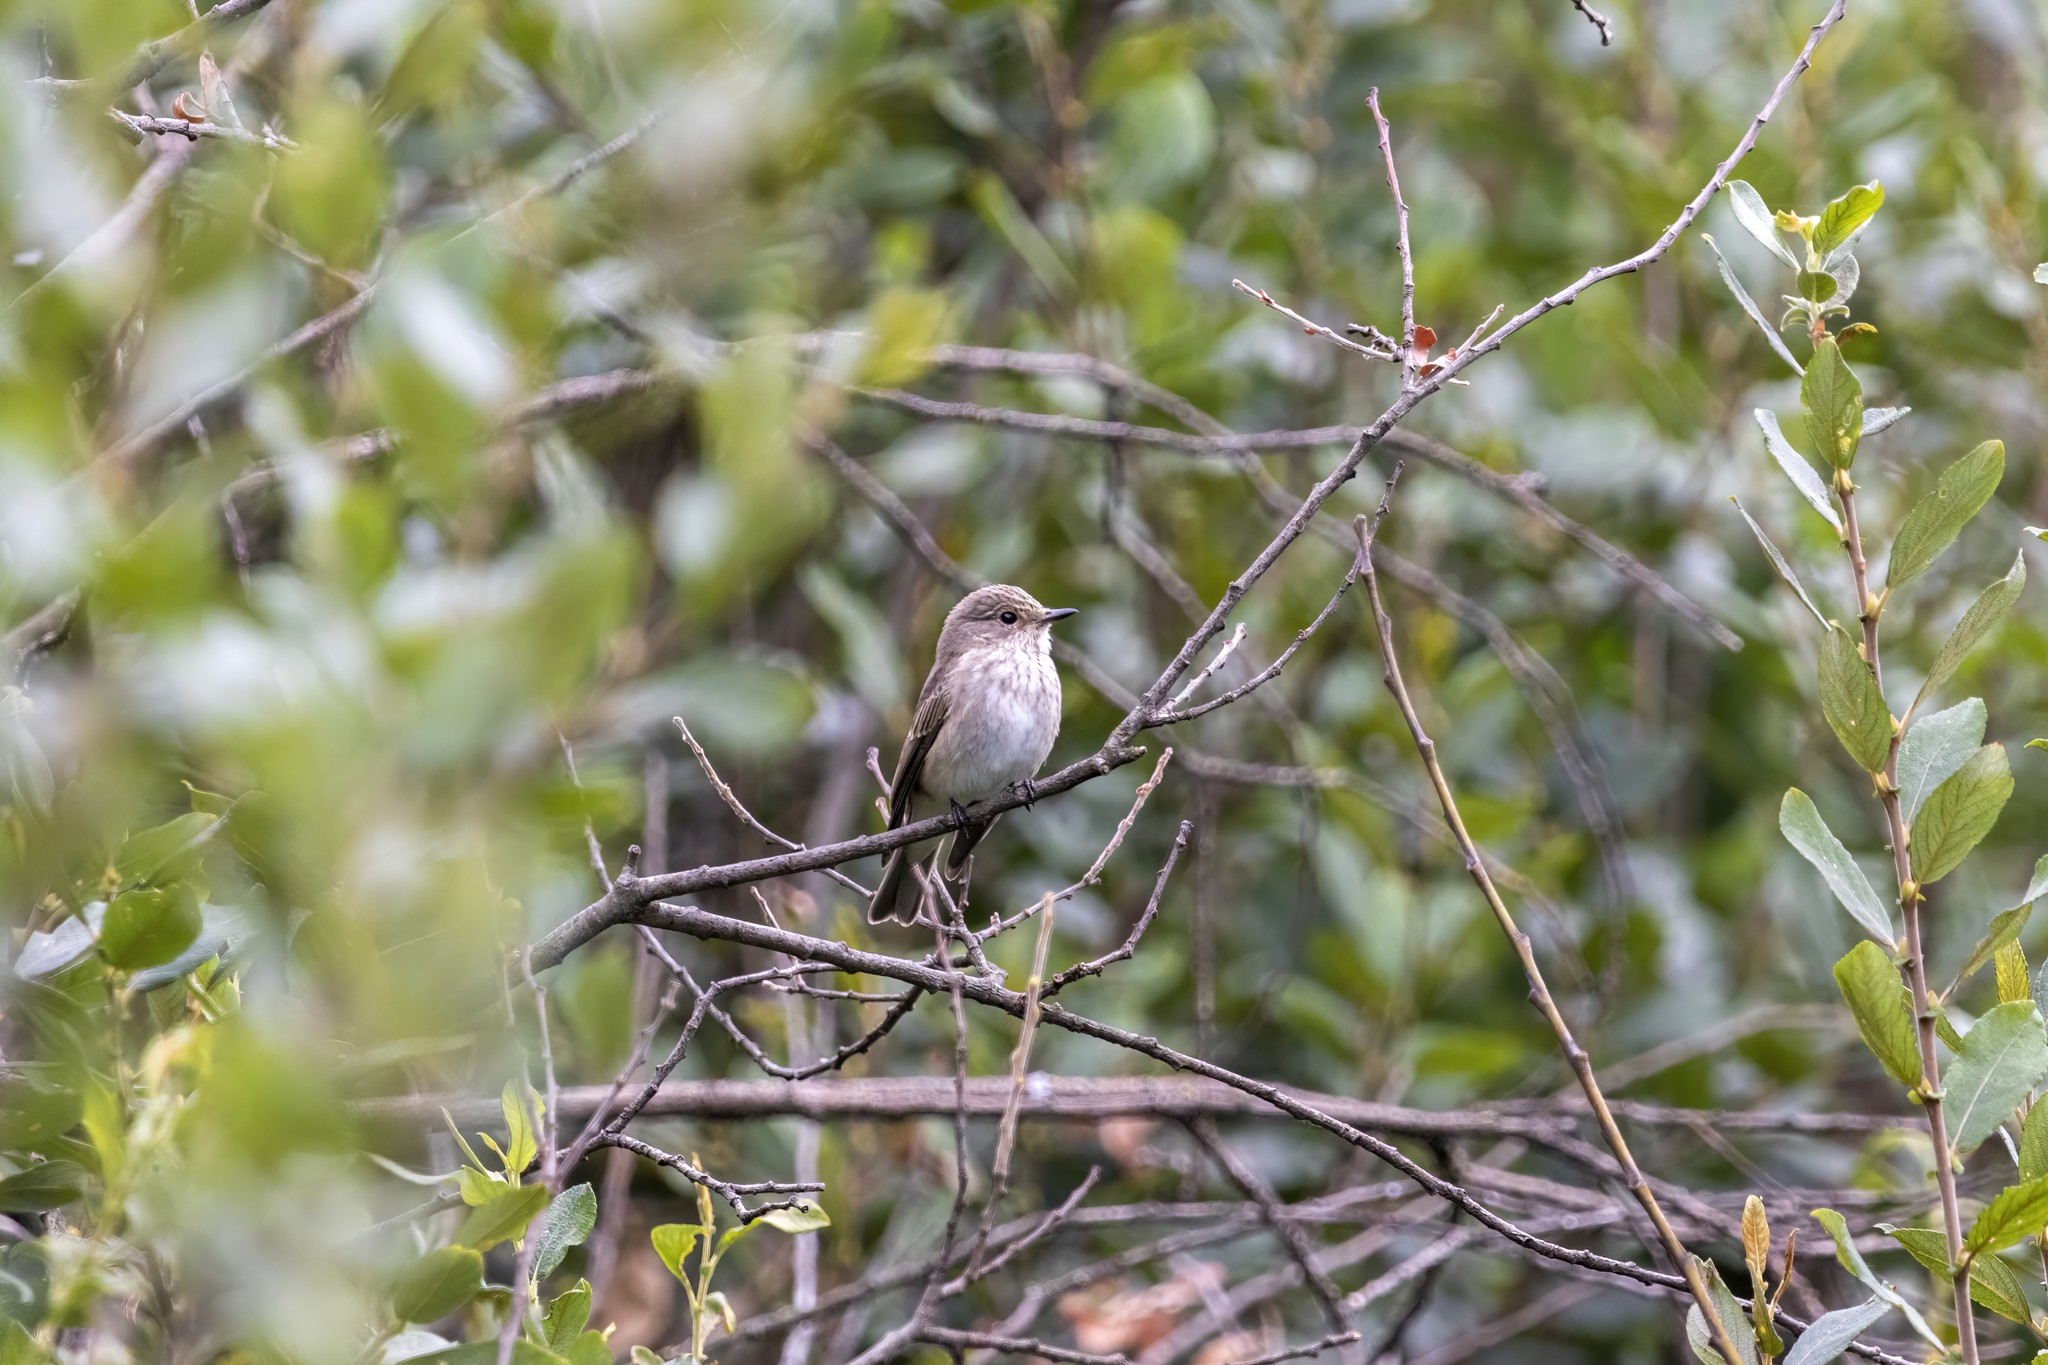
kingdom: Animalia
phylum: Chordata
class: Aves
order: Passeriformes
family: Muscicapidae
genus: Muscicapa
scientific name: Muscicapa striata
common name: Spotted flycatcher
